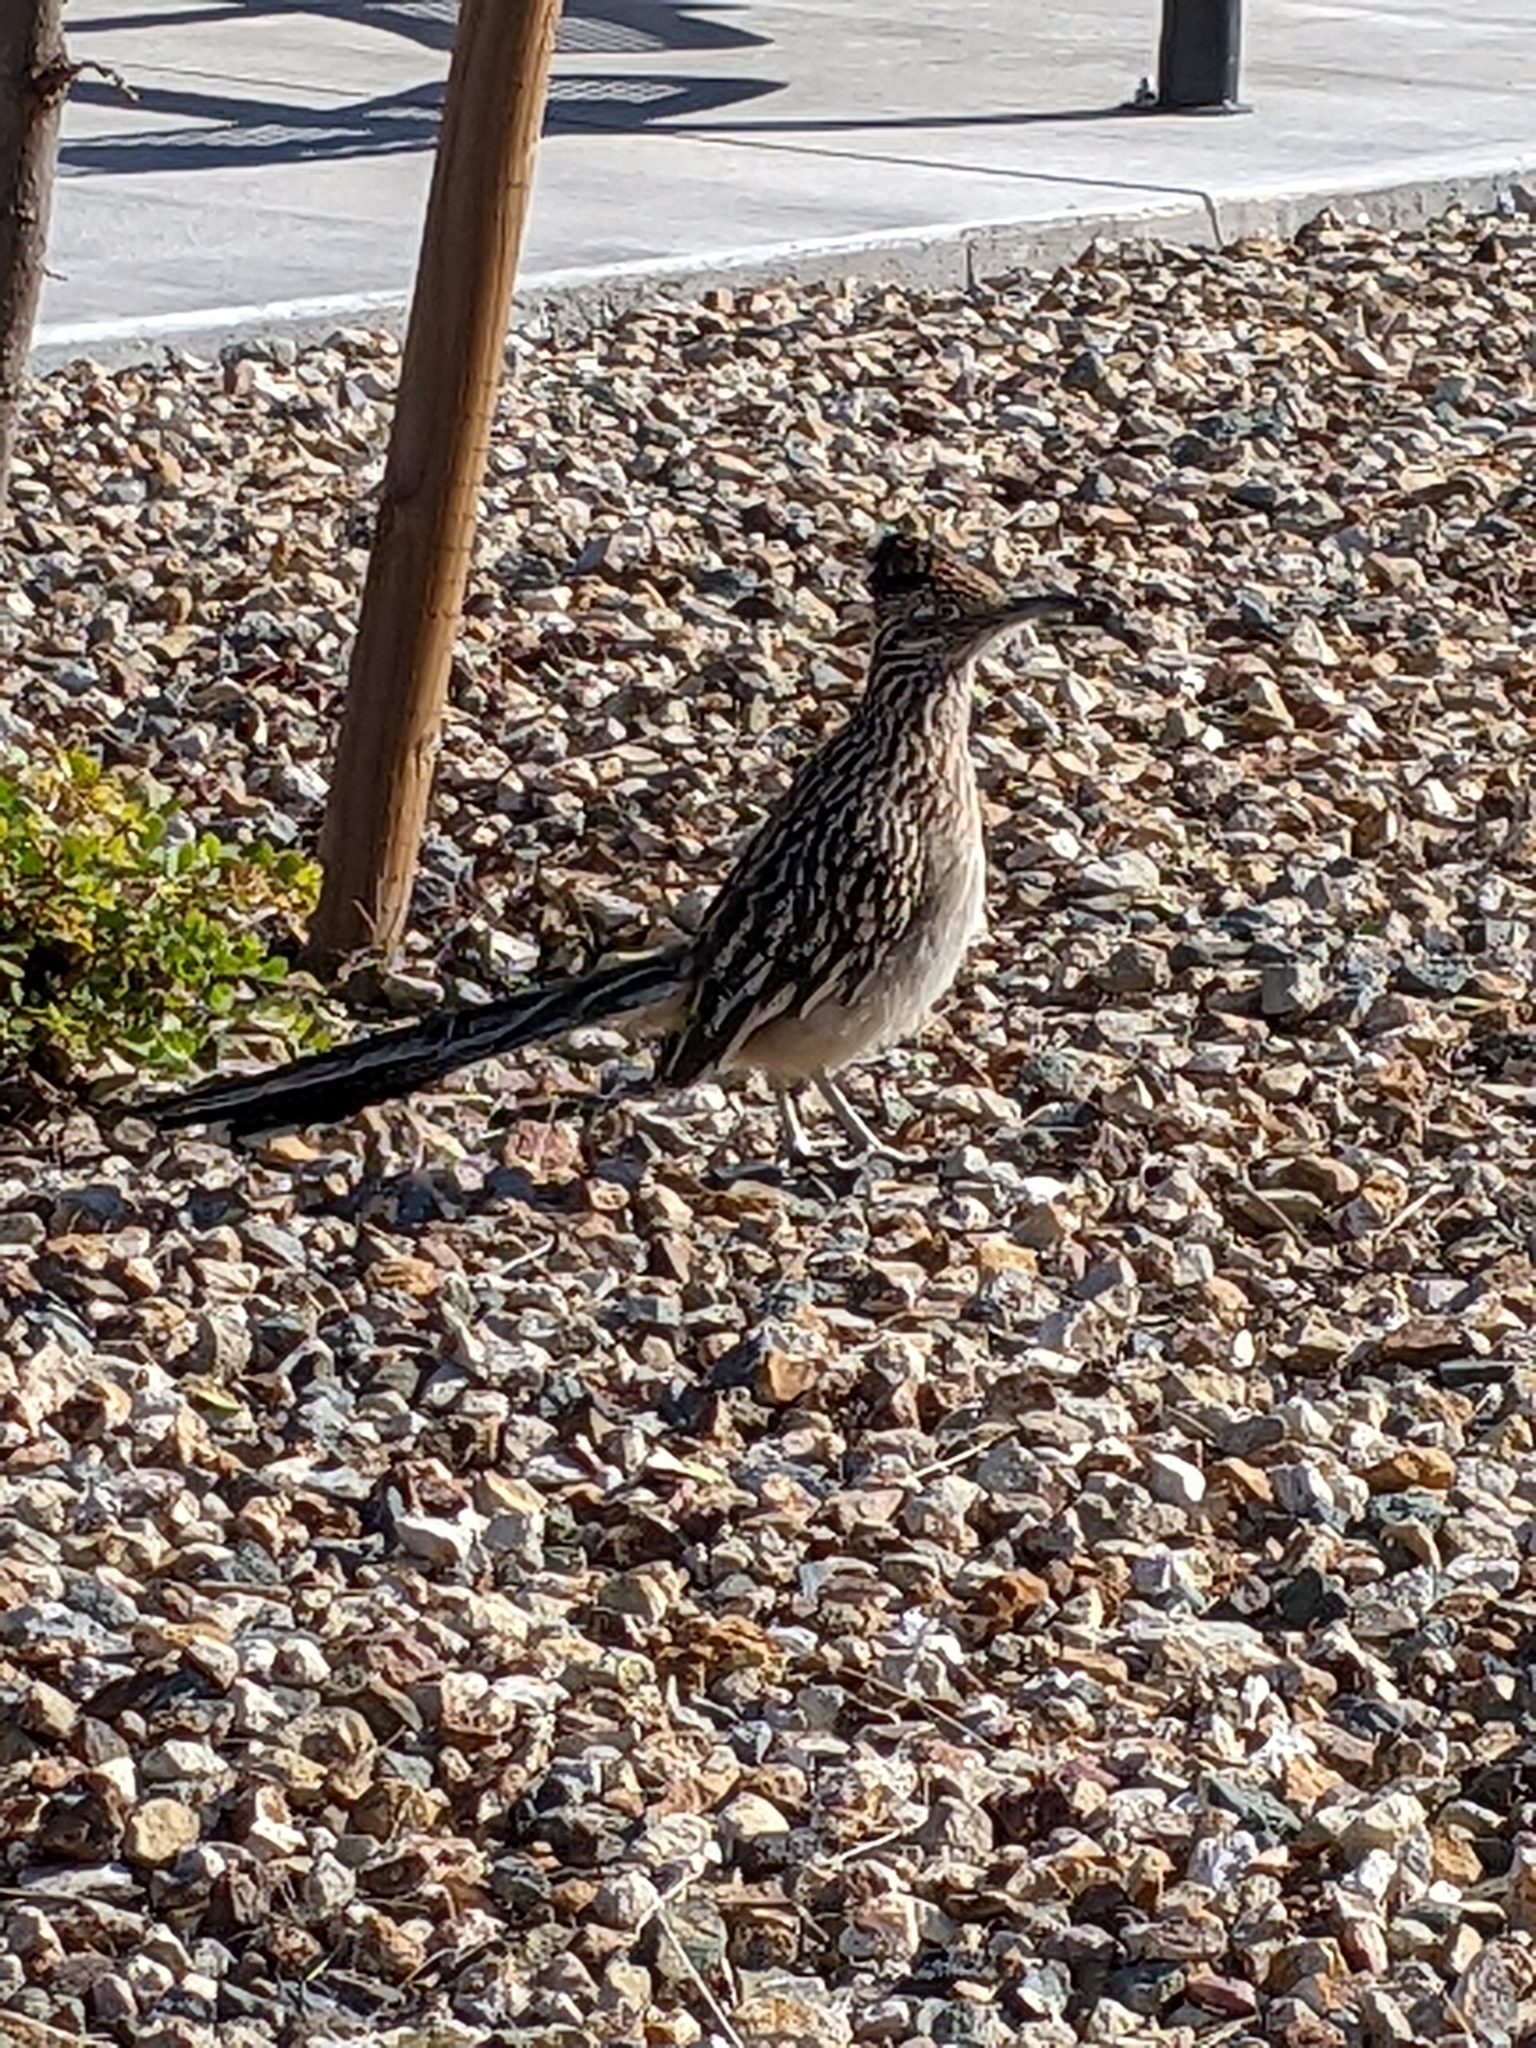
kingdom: Animalia
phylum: Chordata
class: Aves
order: Cuculiformes
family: Cuculidae
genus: Geococcyx
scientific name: Geococcyx californianus
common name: Greater roadrunner
